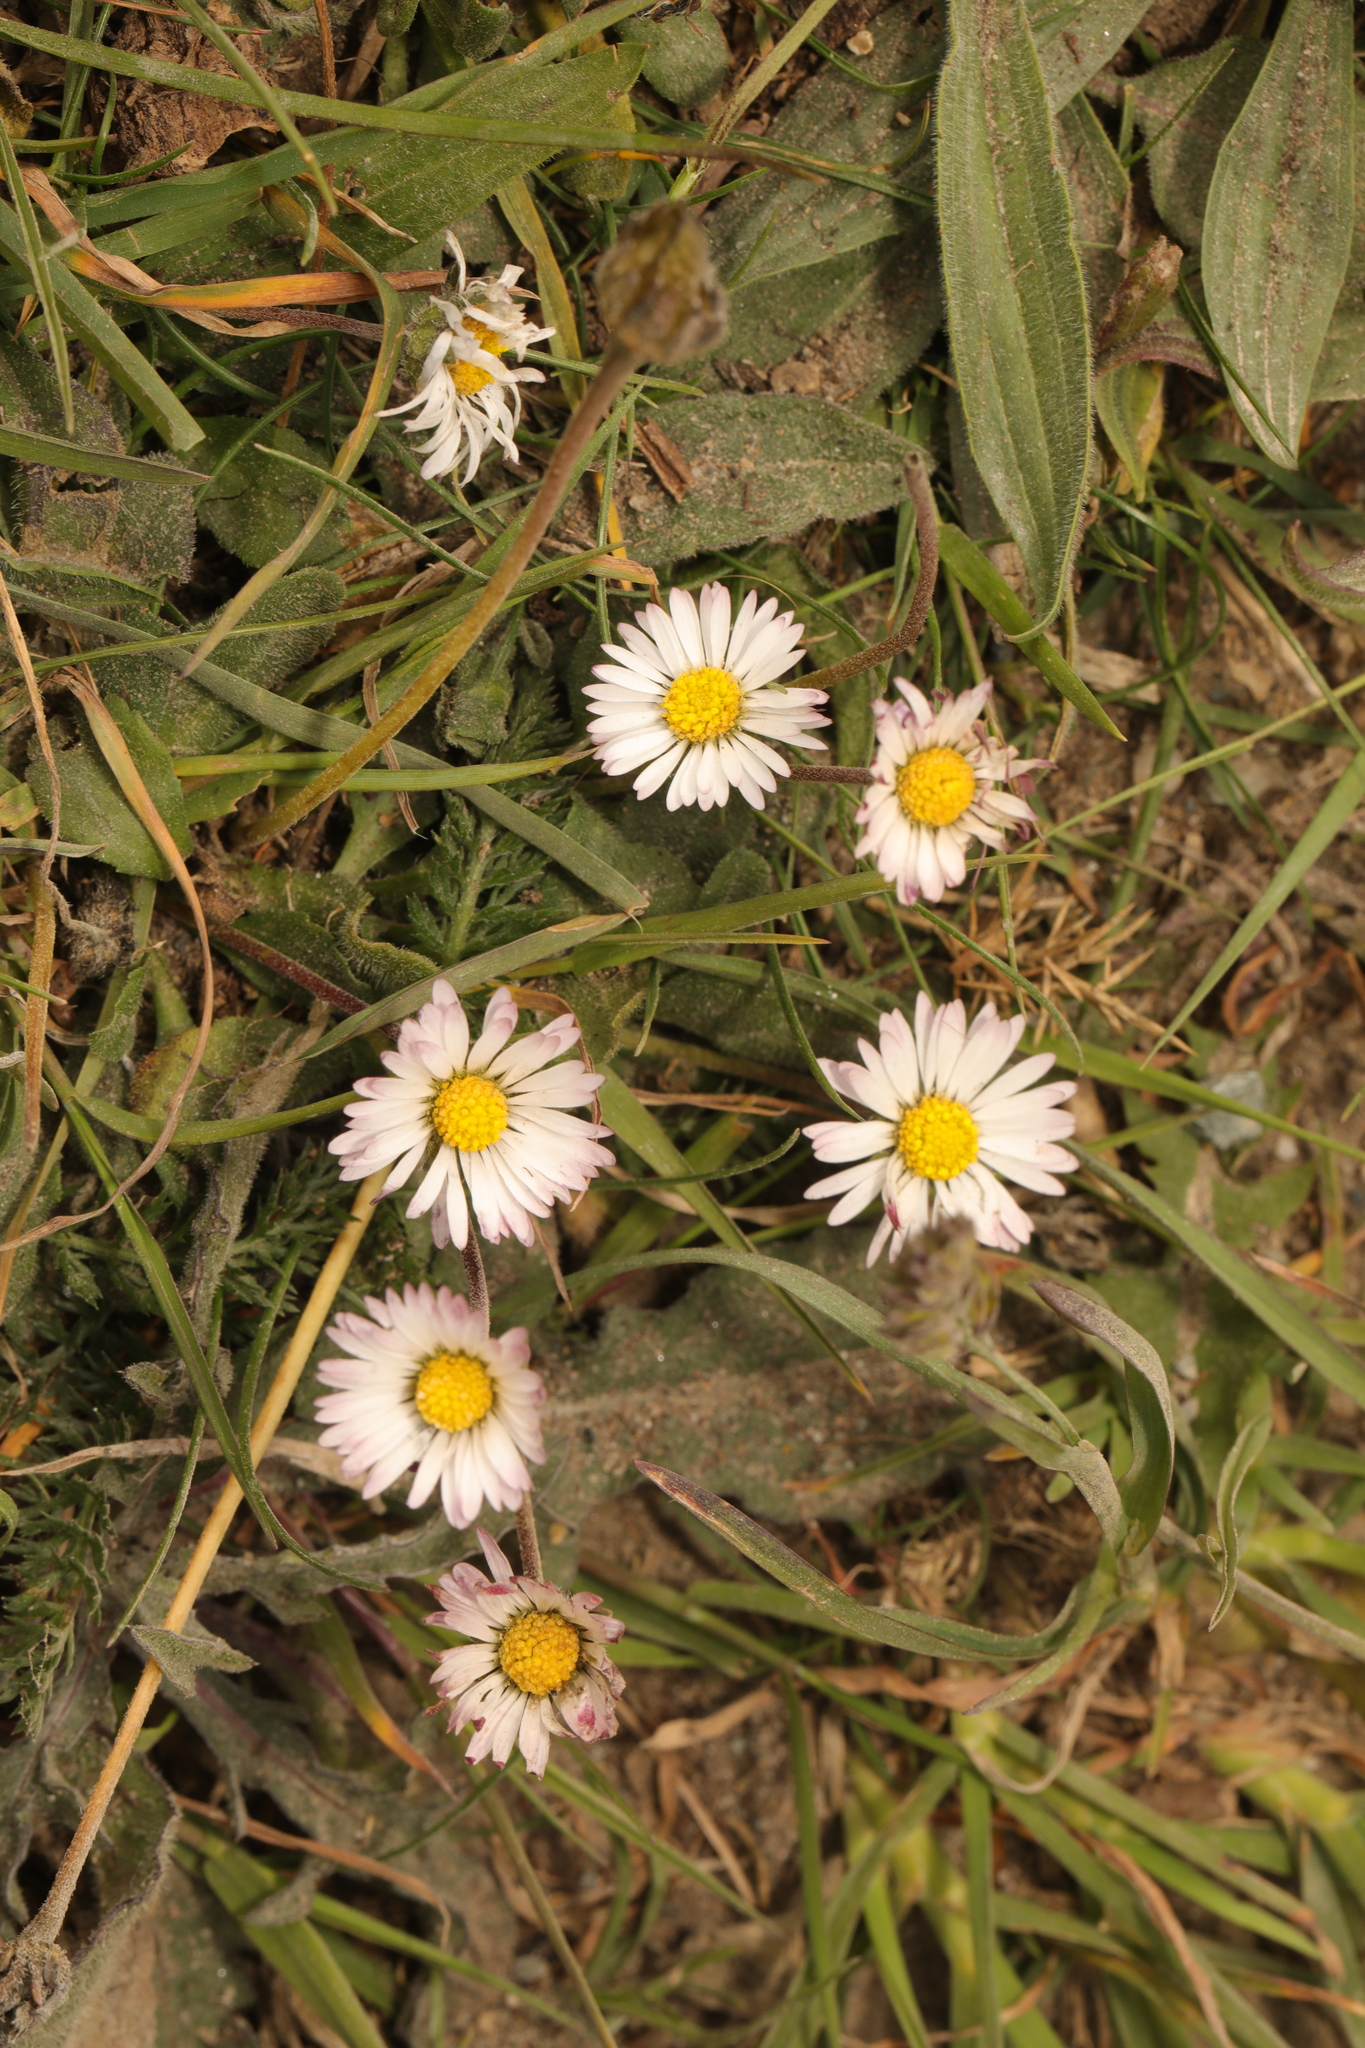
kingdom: Plantae
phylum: Tracheophyta
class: Magnoliopsida
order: Asterales
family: Asteraceae
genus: Bellis
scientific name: Bellis perennis
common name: Lawndaisy
